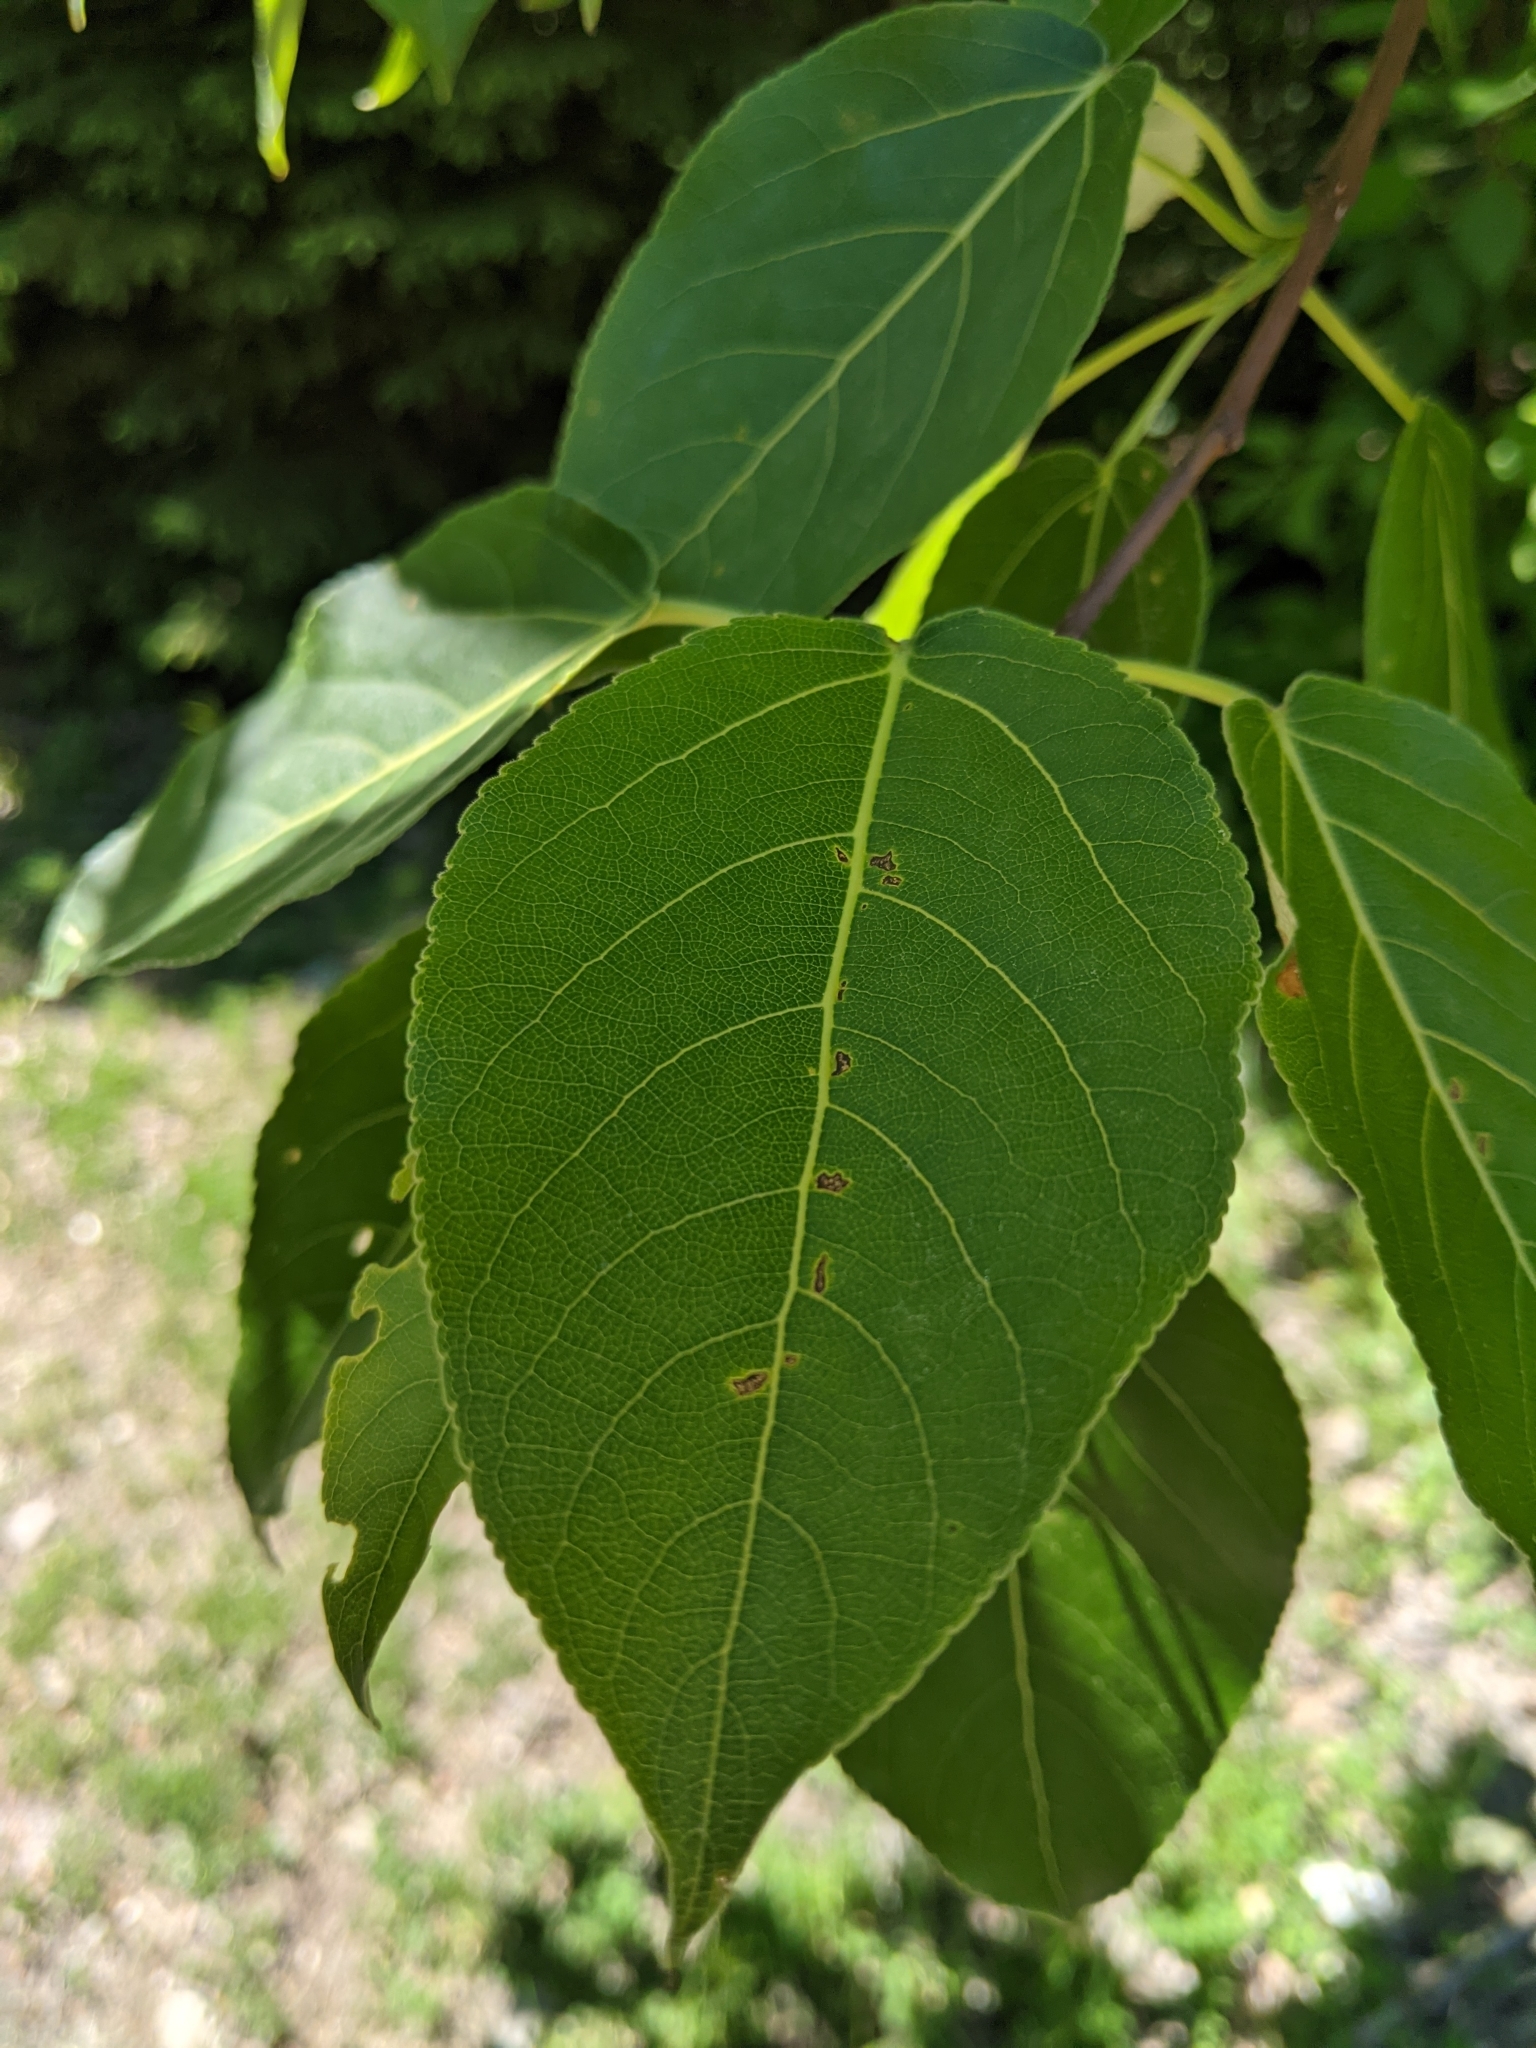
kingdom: Plantae
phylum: Tracheophyta
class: Magnoliopsida
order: Malpighiales
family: Salicaceae
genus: Populus
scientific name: Populus balsamifera
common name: Balsam poplar
